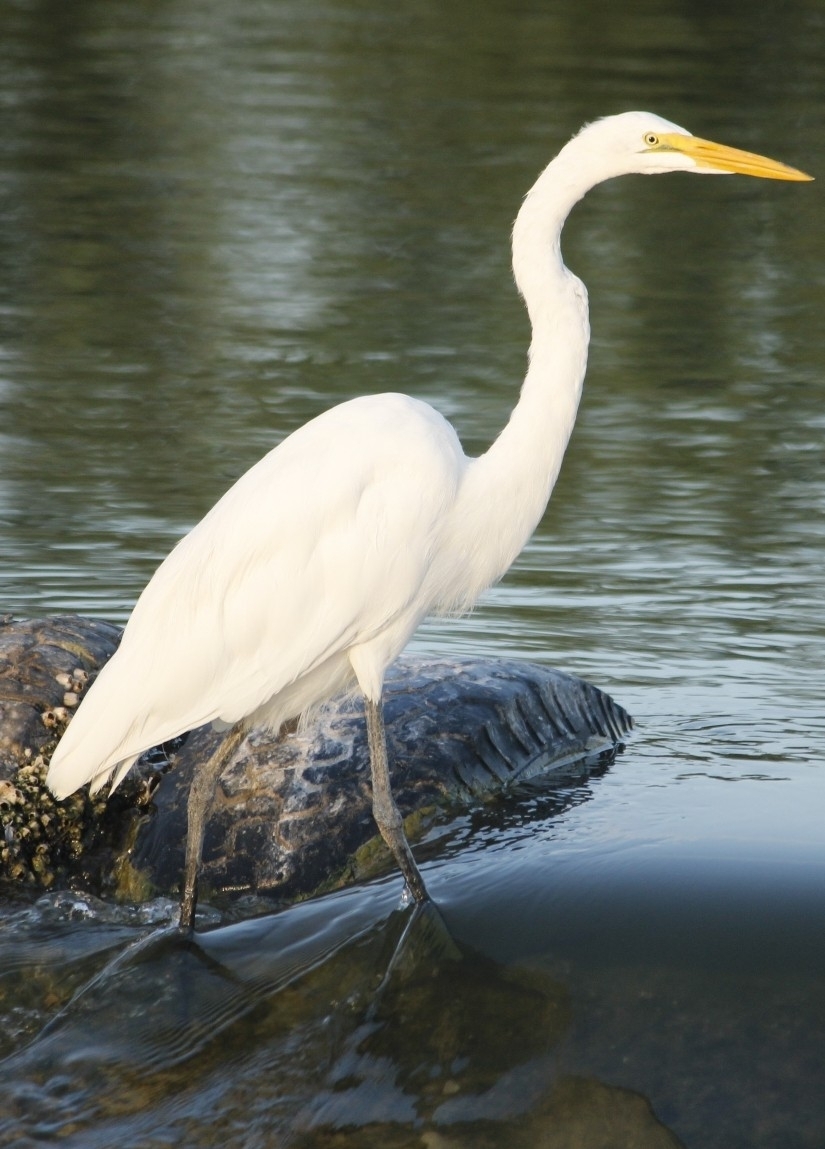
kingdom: Animalia
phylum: Chordata
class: Aves
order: Pelecaniformes
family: Ardeidae
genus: Ardea
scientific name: Ardea alba
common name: Great egret
